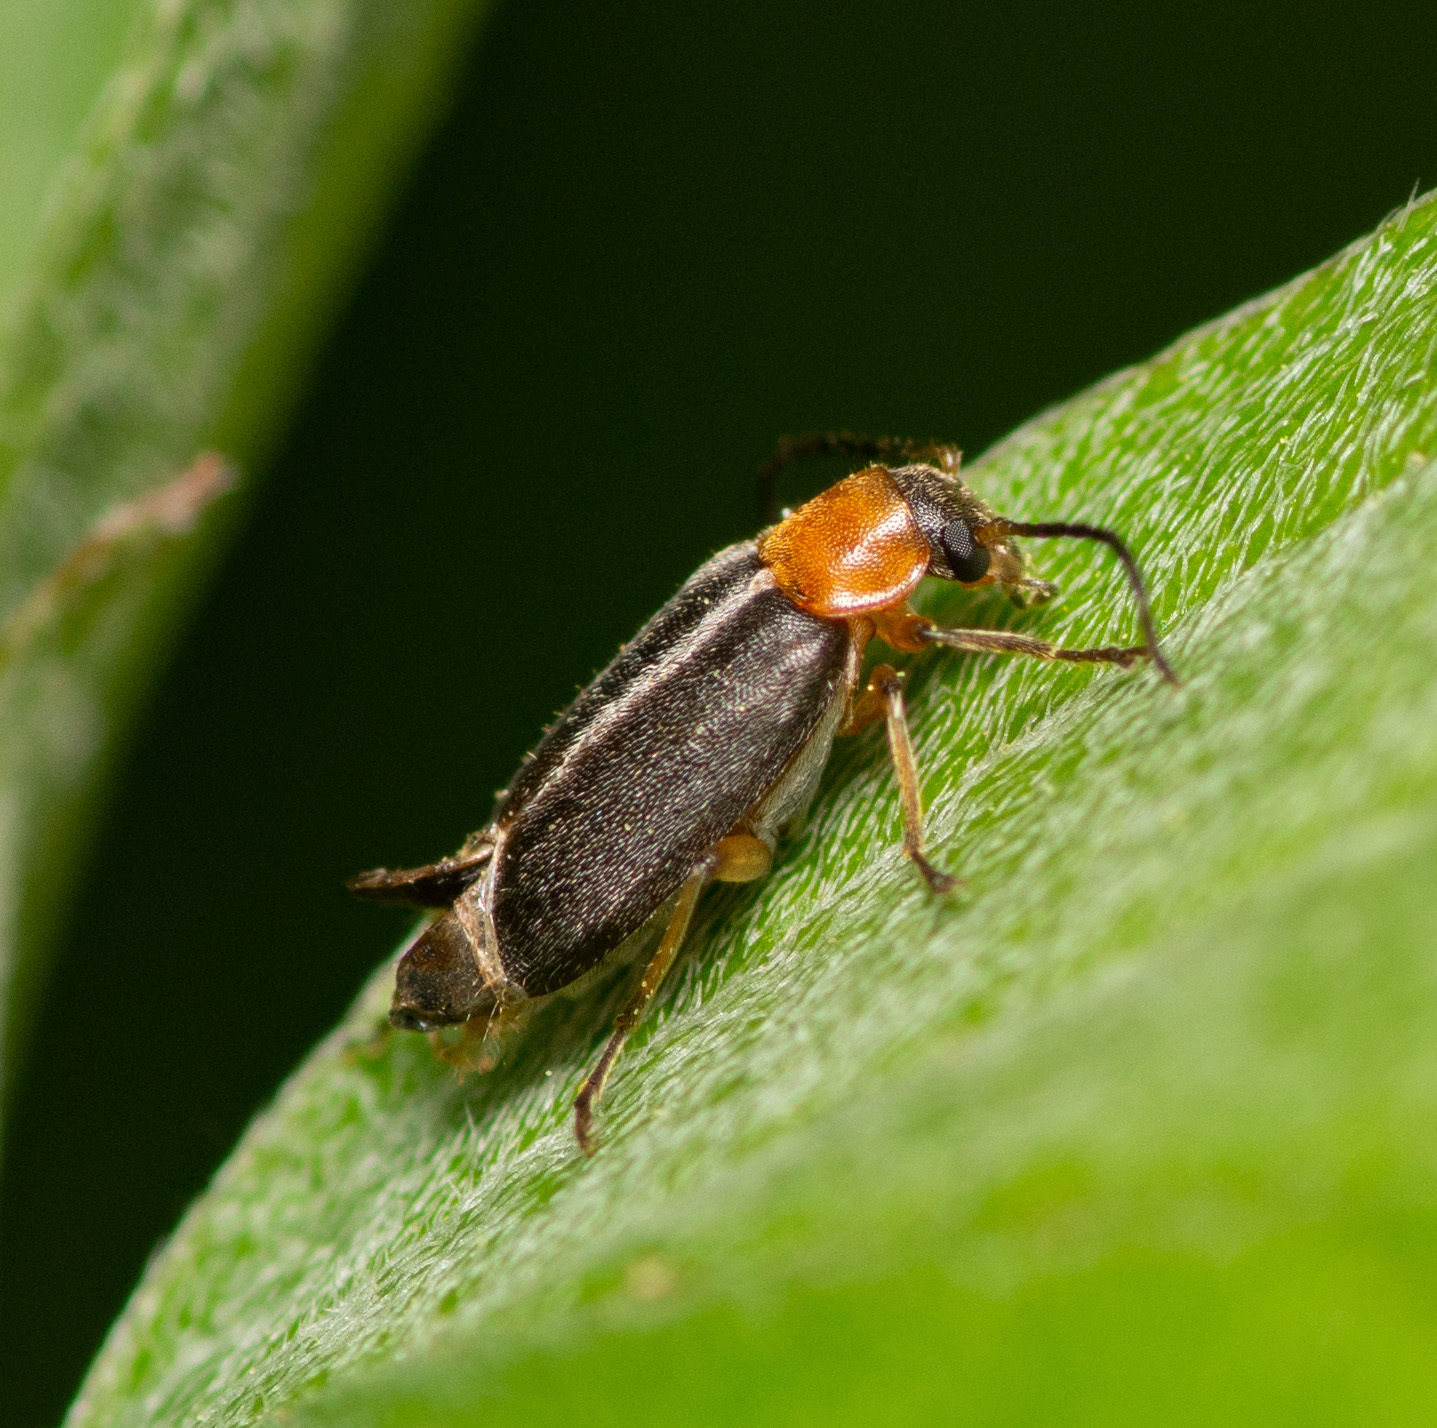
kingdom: Animalia
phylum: Arthropoda
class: Insecta
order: Coleoptera
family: Melandryidae
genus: Osphya
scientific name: Osphya varians
